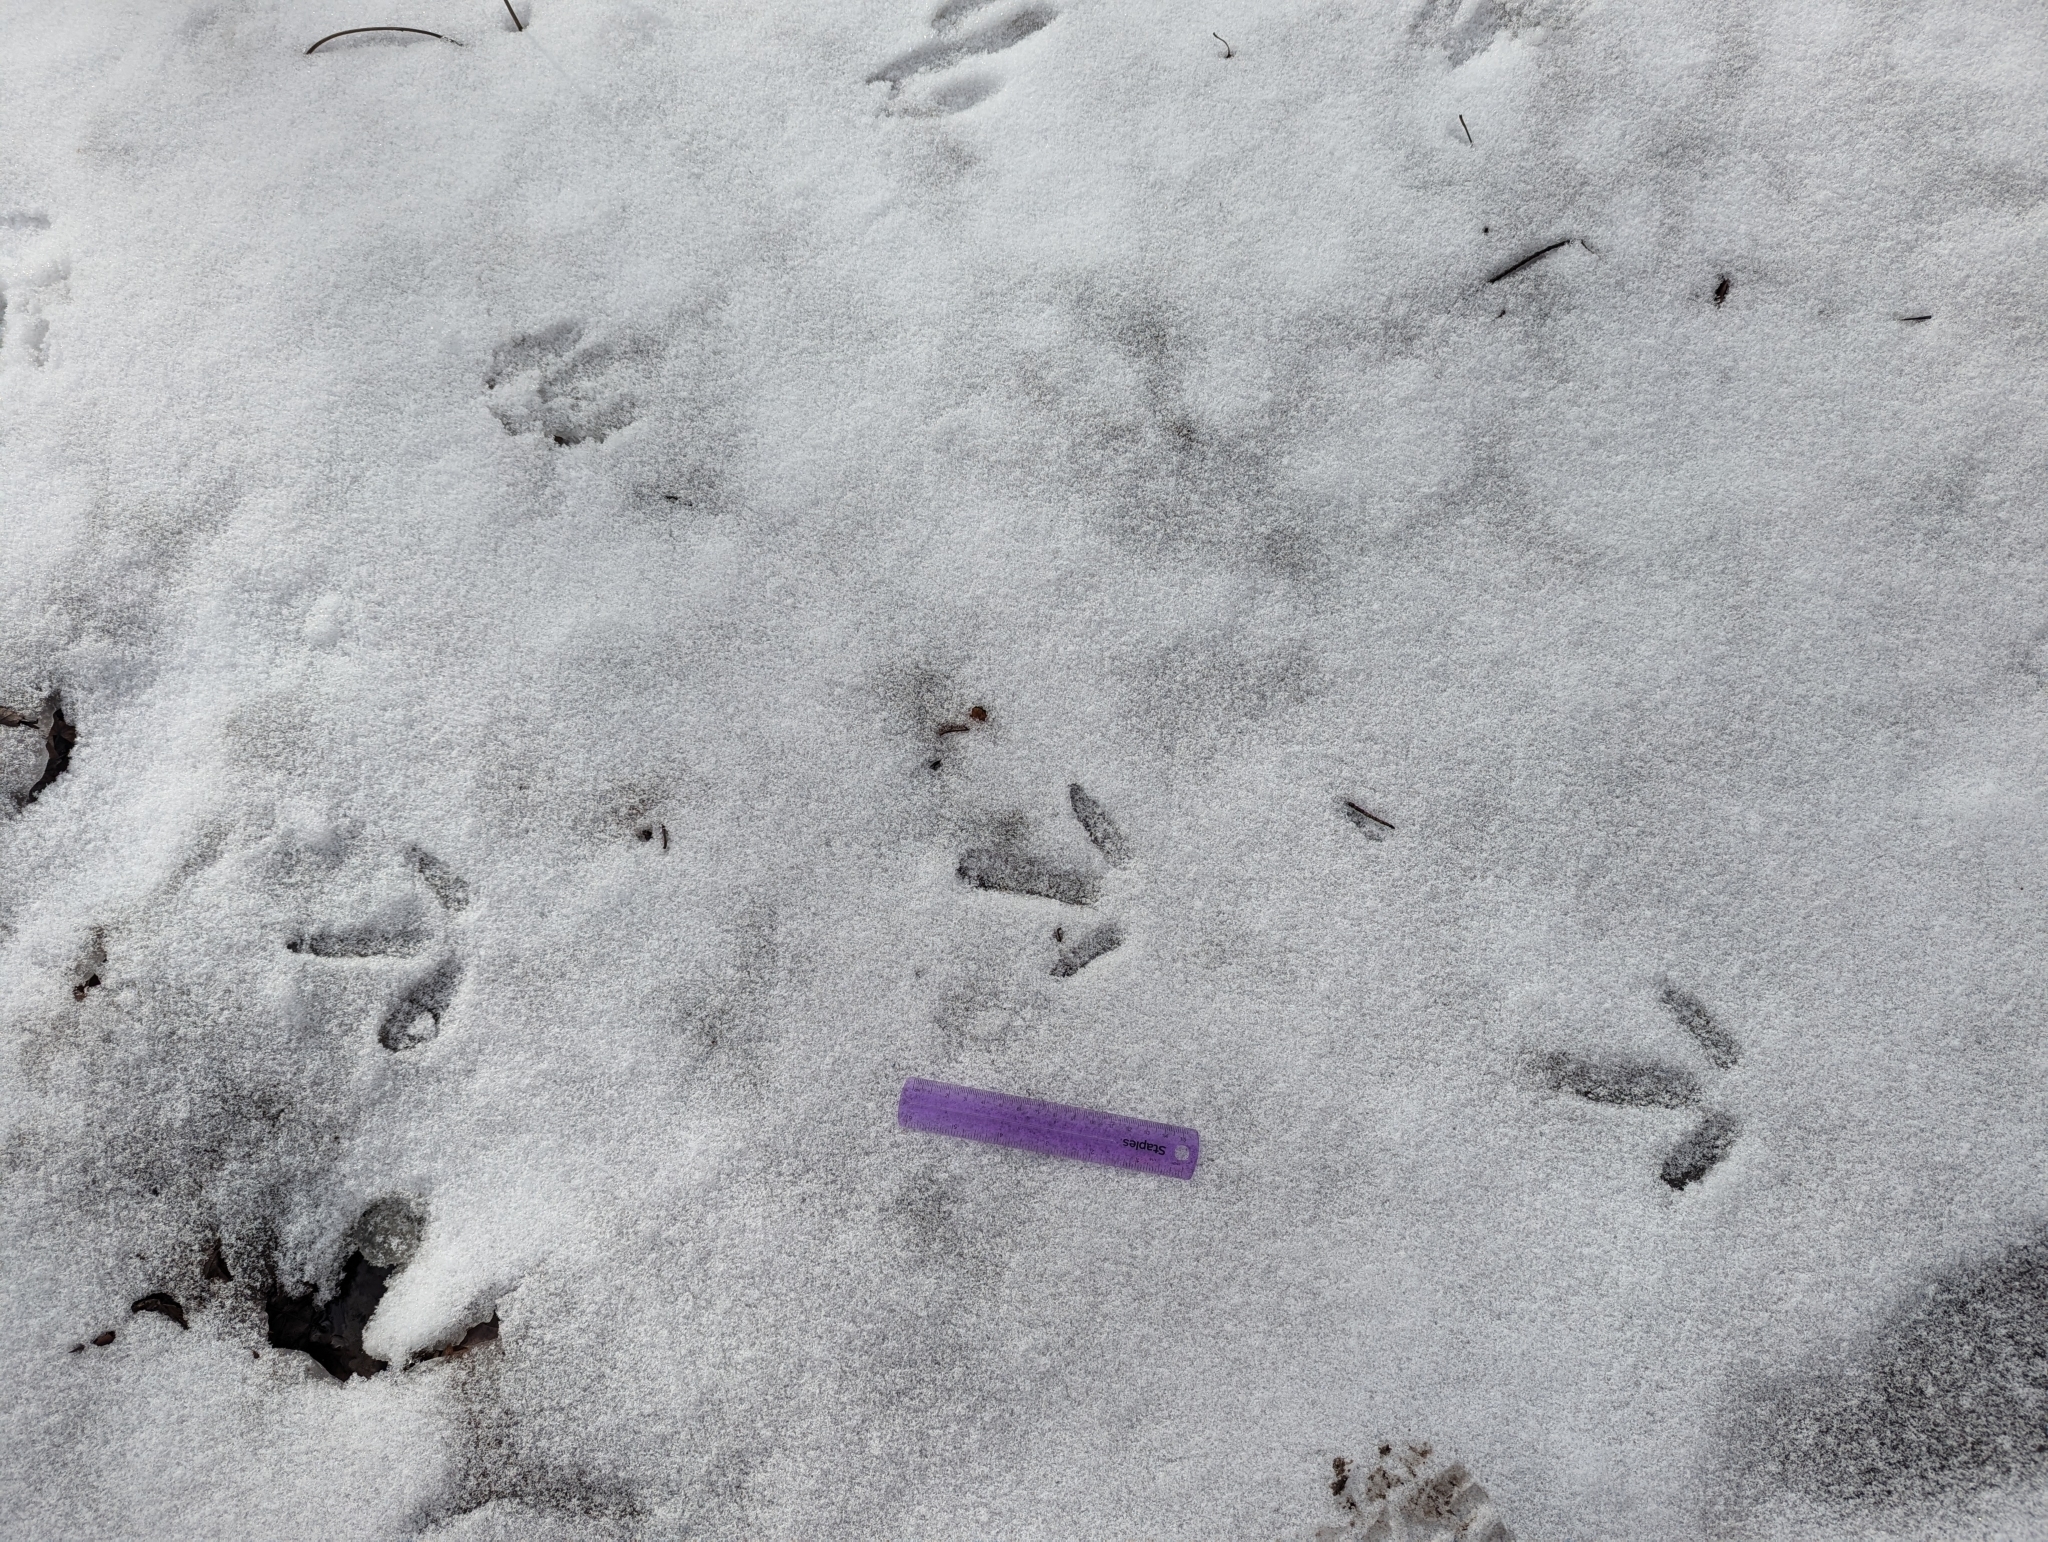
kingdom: Animalia
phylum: Chordata
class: Aves
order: Galliformes
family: Phasianidae
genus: Meleagris
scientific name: Meleagris gallopavo
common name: Wild turkey
